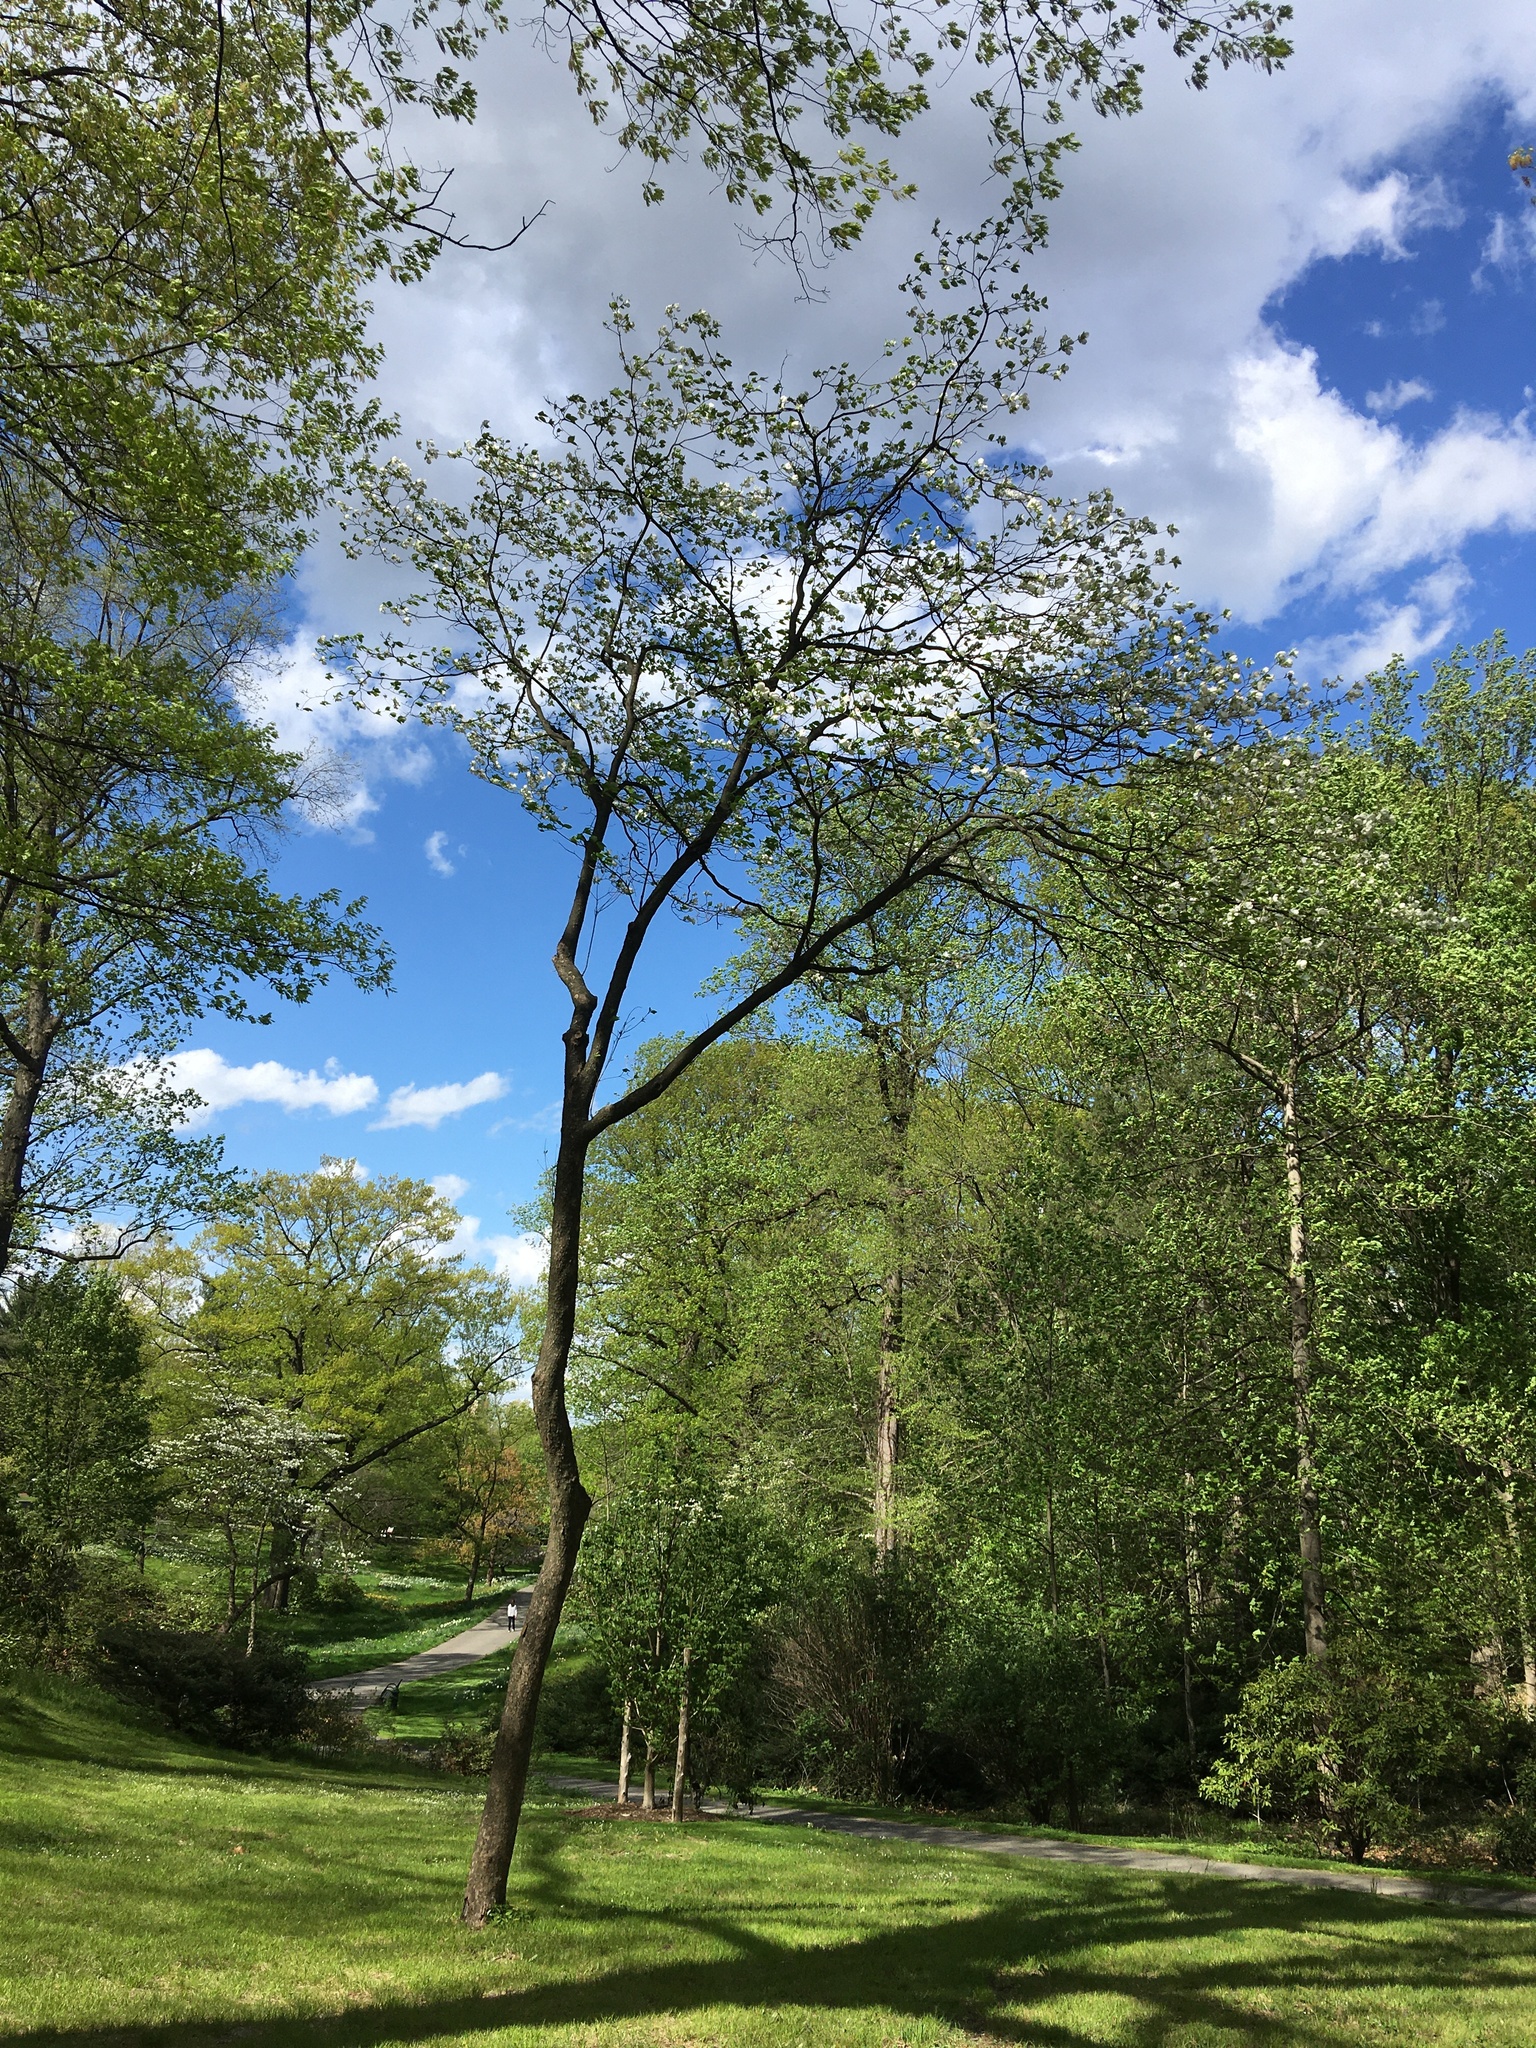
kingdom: Plantae
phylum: Tracheophyta
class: Magnoliopsida
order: Cornales
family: Cornaceae
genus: Cornus
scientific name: Cornus florida
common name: Flowering dogwood
